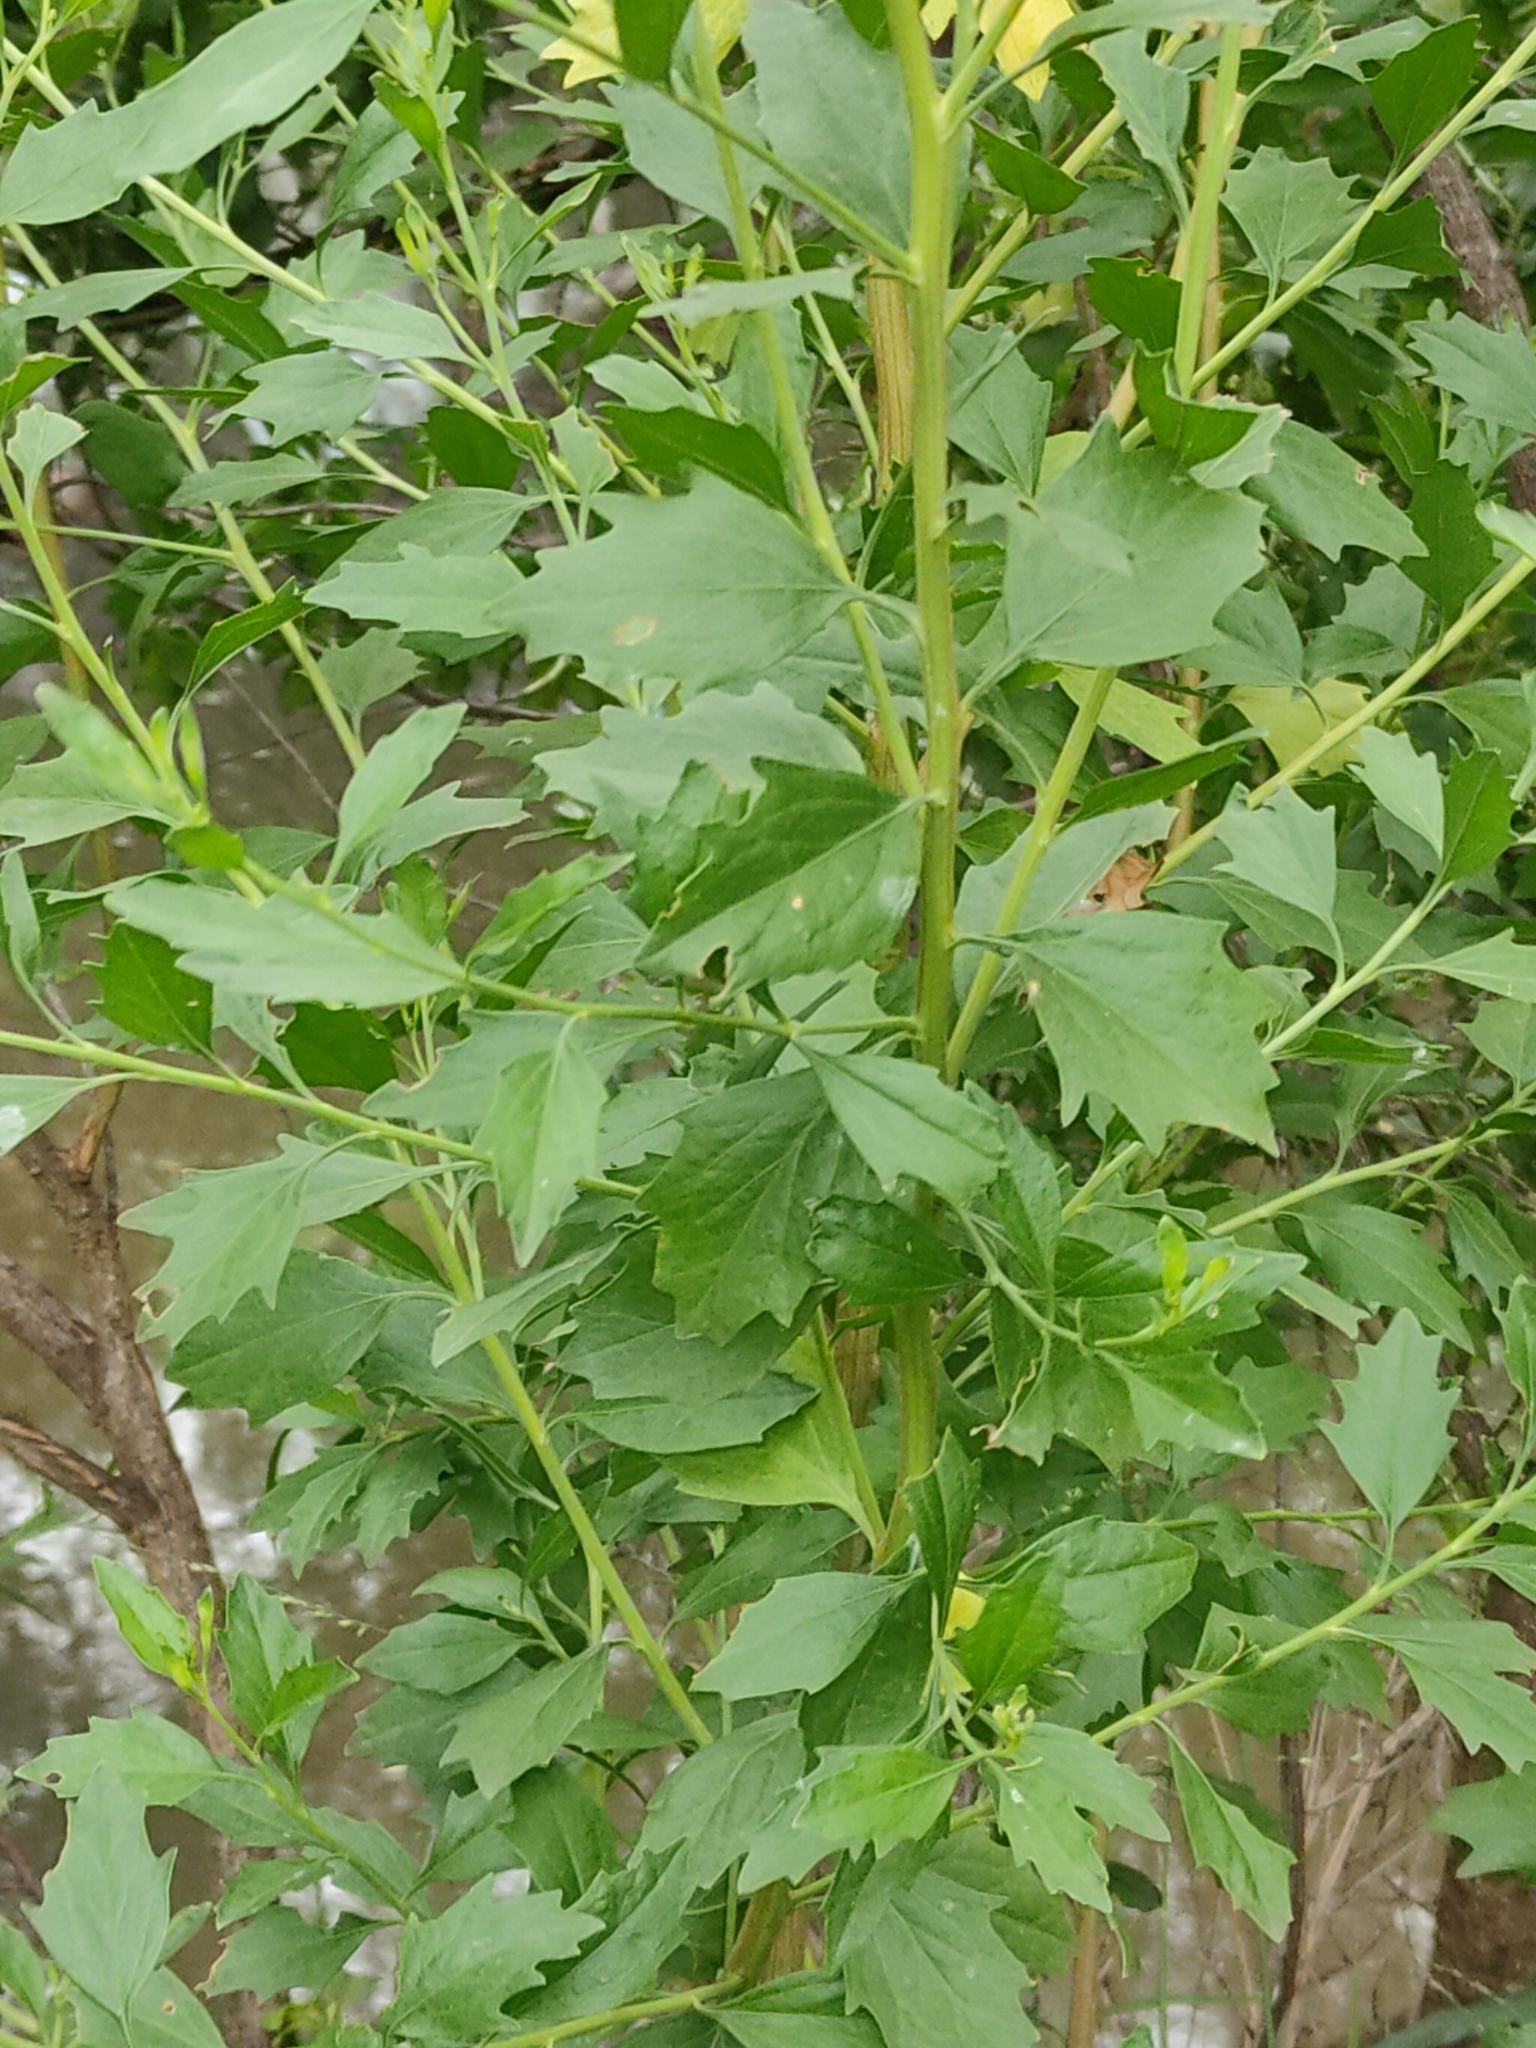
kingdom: Plantae
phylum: Tracheophyta
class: Magnoliopsida
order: Asterales
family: Asteraceae
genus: Baccharis
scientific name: Baccharis halimifolia
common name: Eastern baccharis
